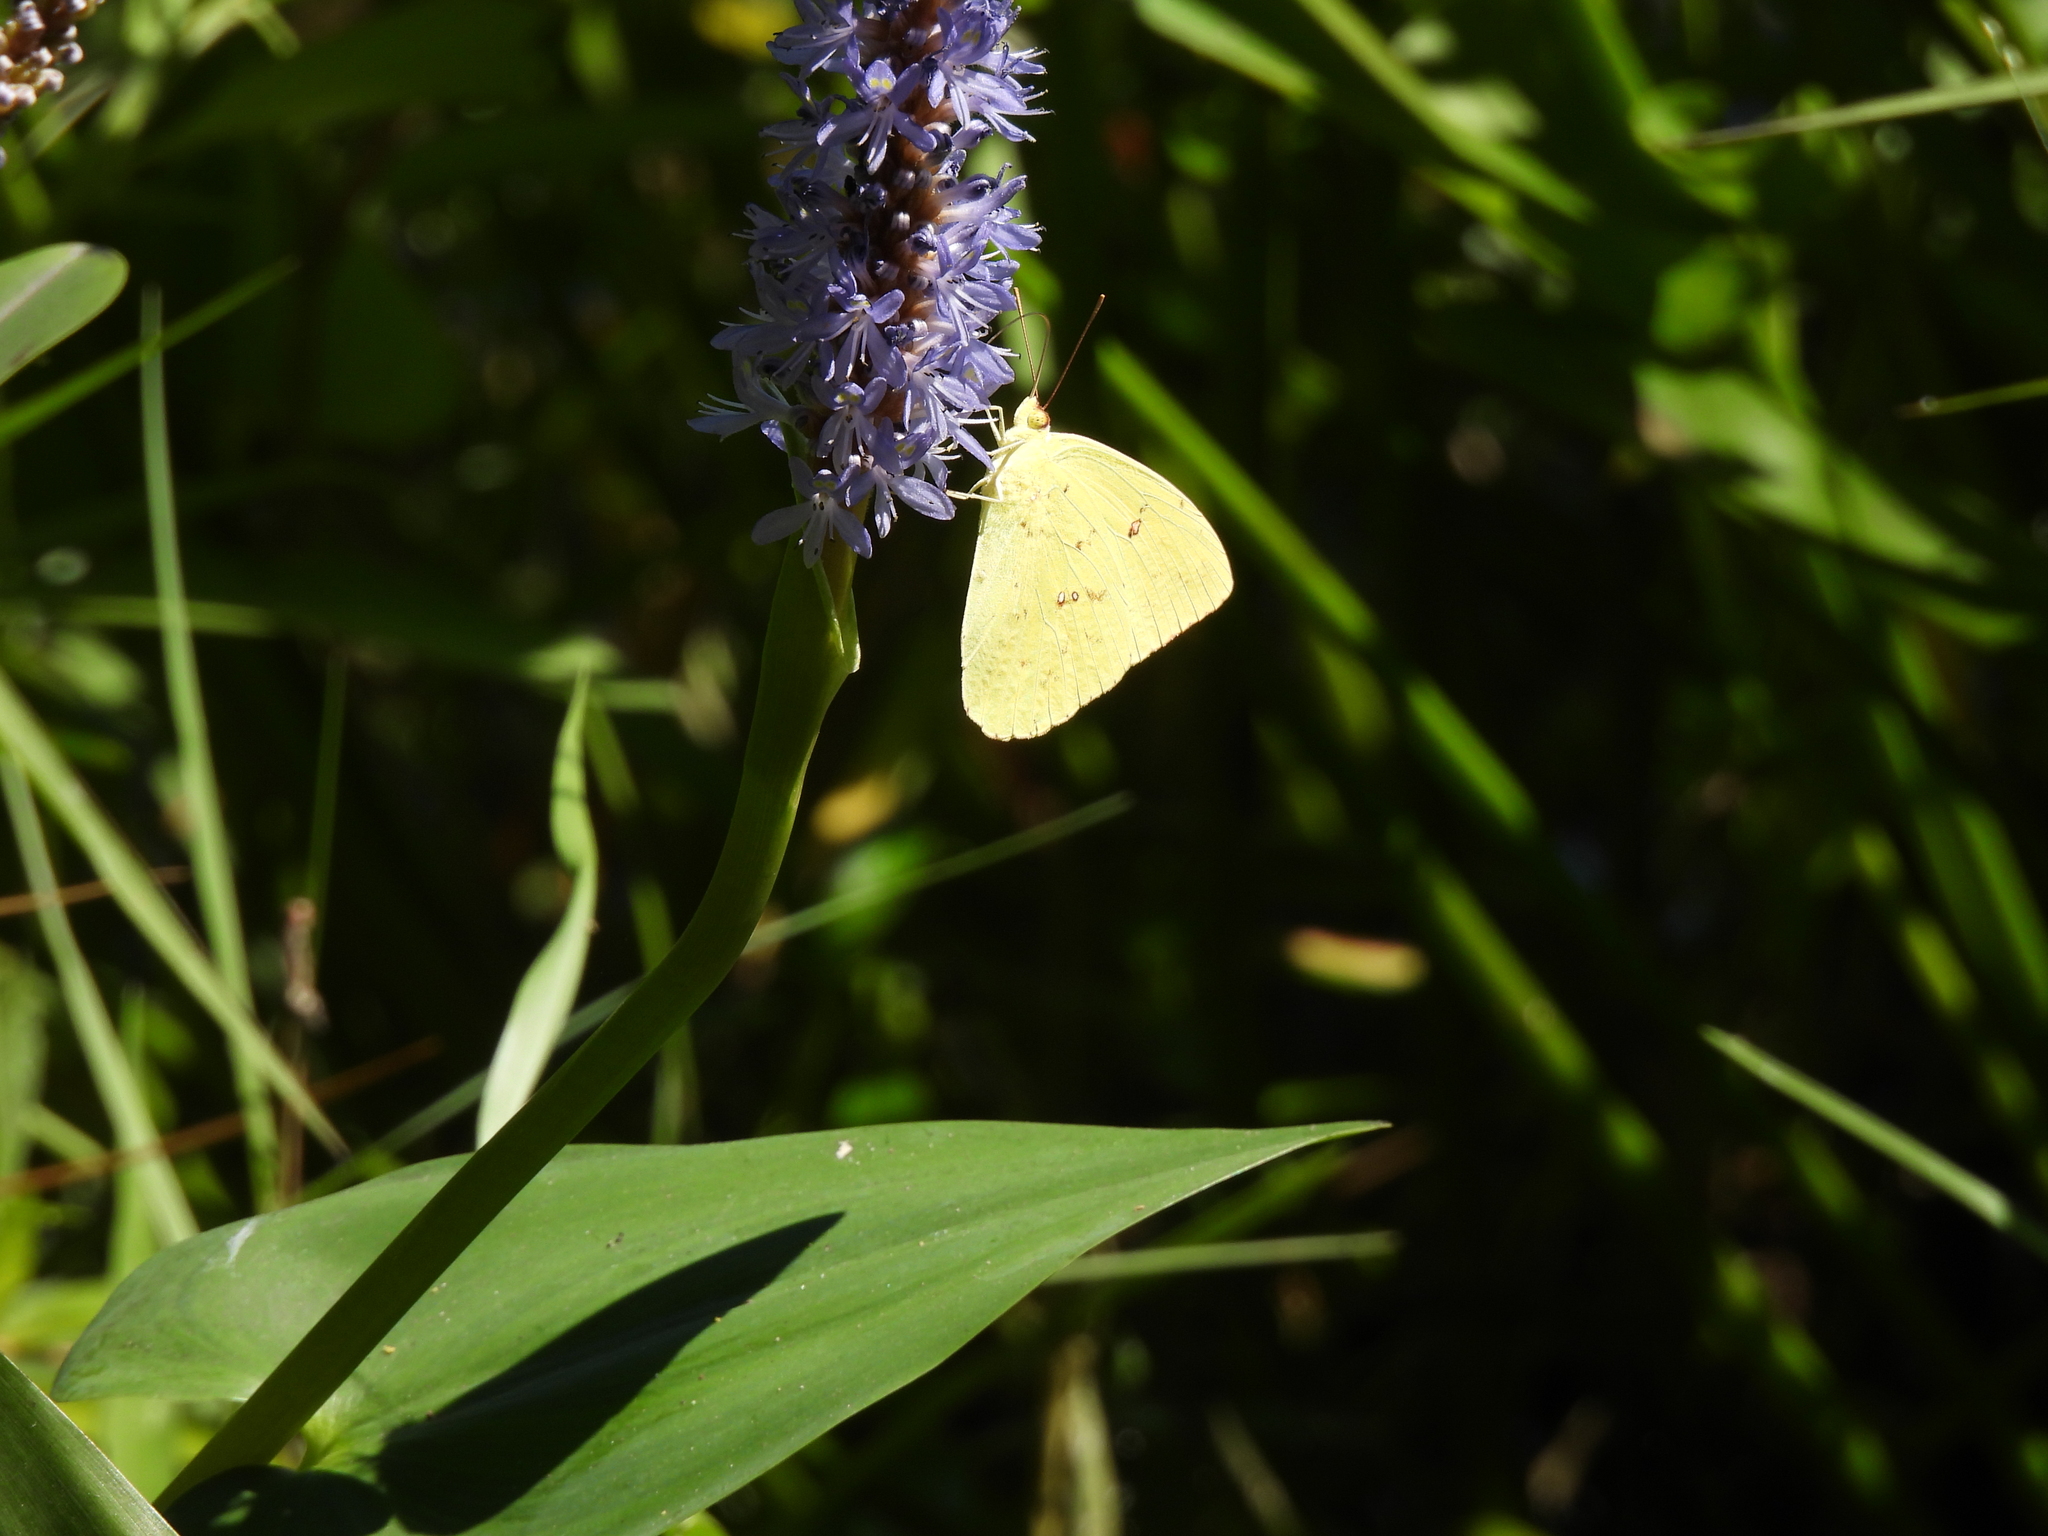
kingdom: Animalia
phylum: Arthropoda
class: Insecta
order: Lepidoptera
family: Pieridae
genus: Phoebis
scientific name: Phoebis sennae
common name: Cloudless sulphur
